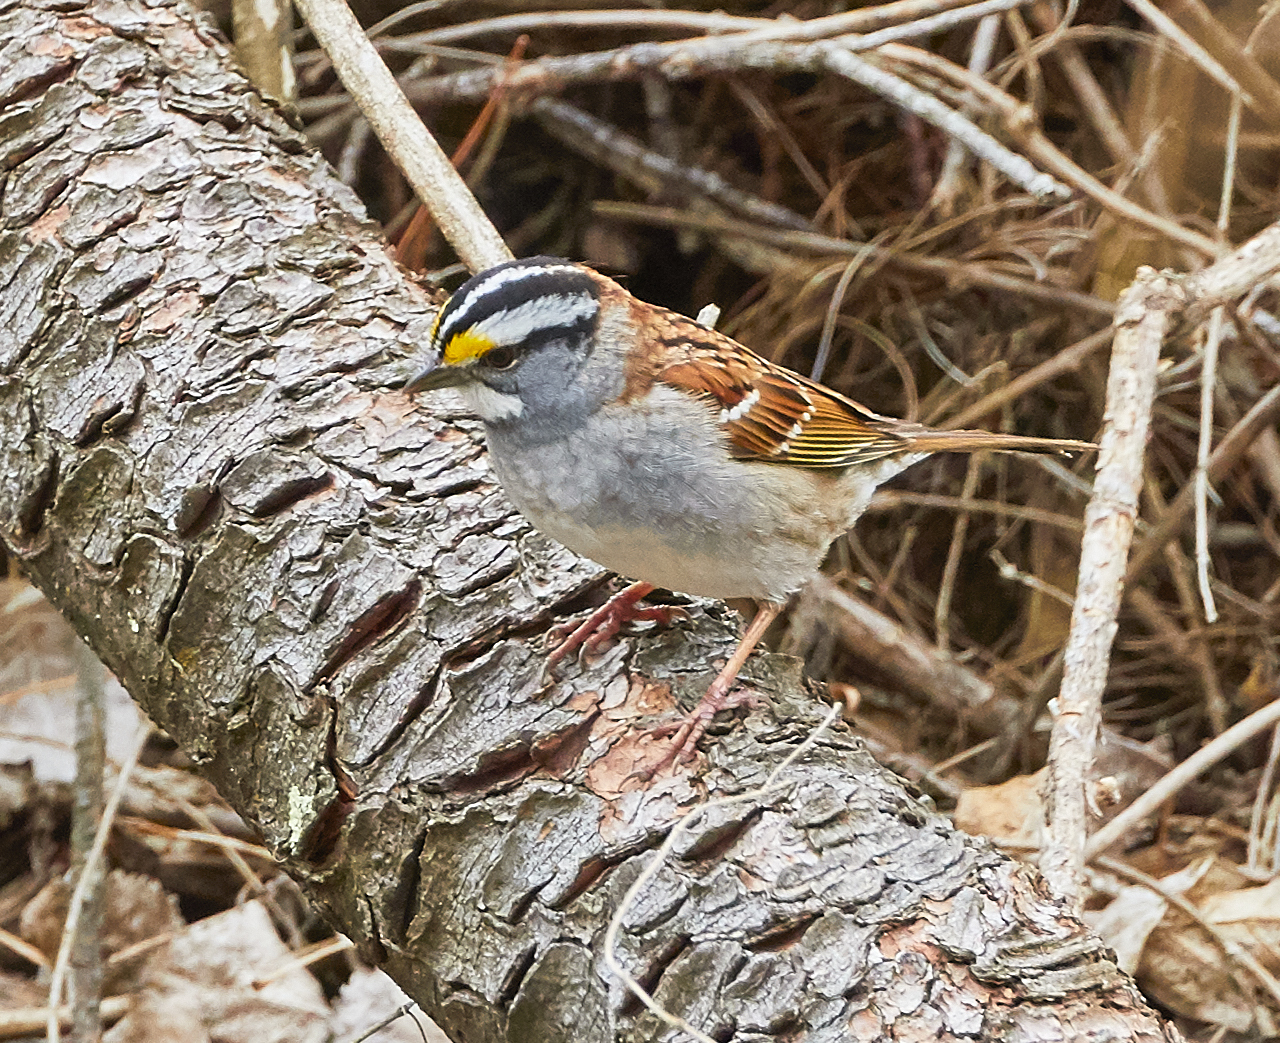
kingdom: Animalia
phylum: Chordata
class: Aves
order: Passeriformes
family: Passerellidae
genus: Zonotrichia
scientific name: Zonotrichia albicollis
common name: White-throated sparrow
